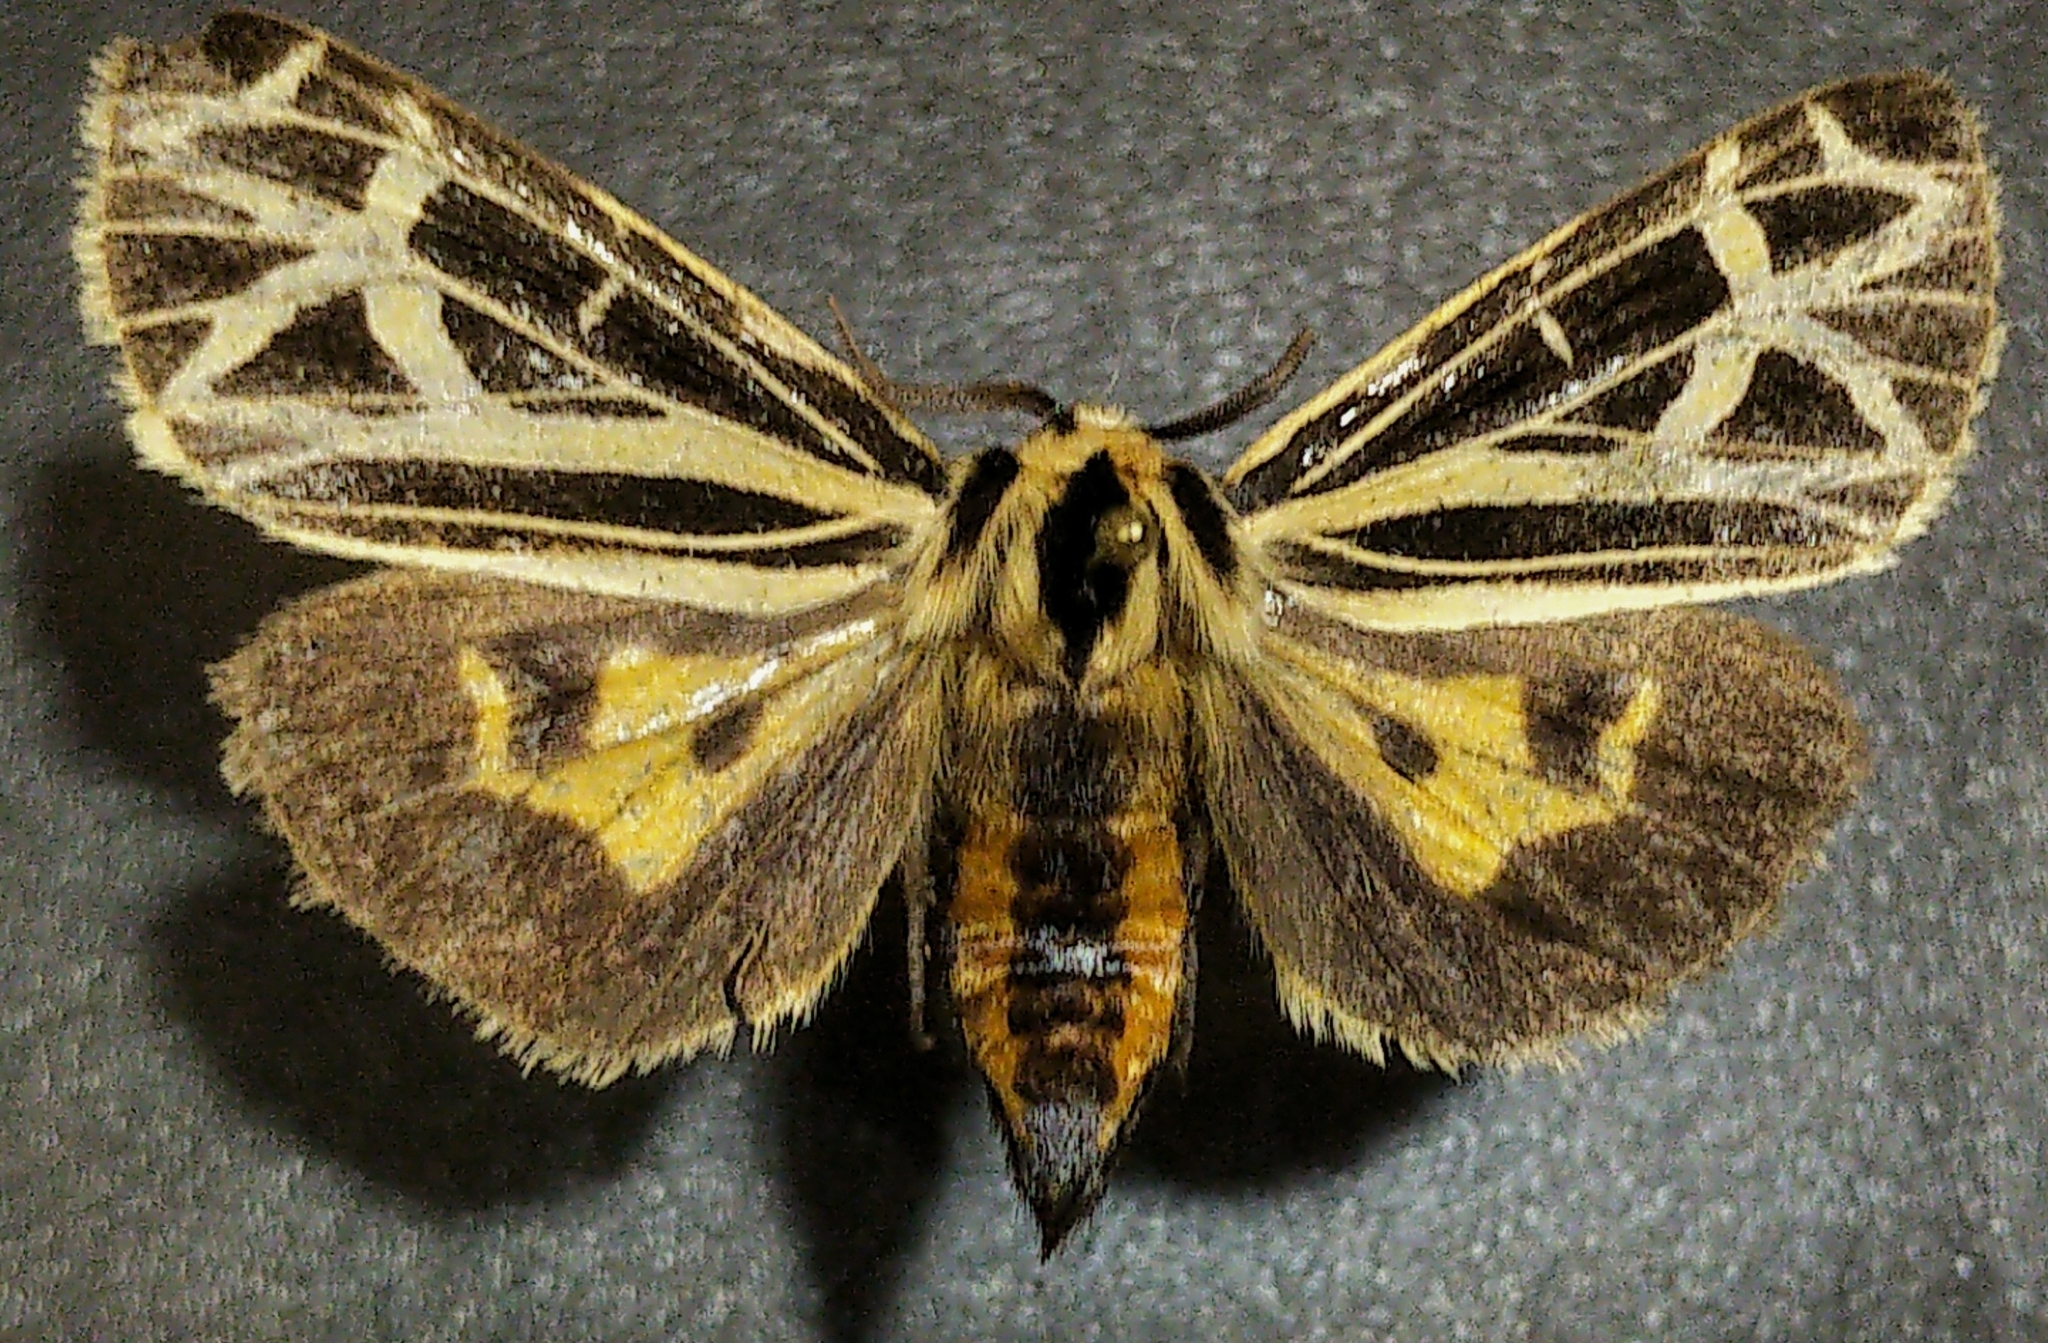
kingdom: Animalia
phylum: Arthropoda
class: Insecta
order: Lepidoptera
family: Erebidae
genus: Apantesis
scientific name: Apantesis
